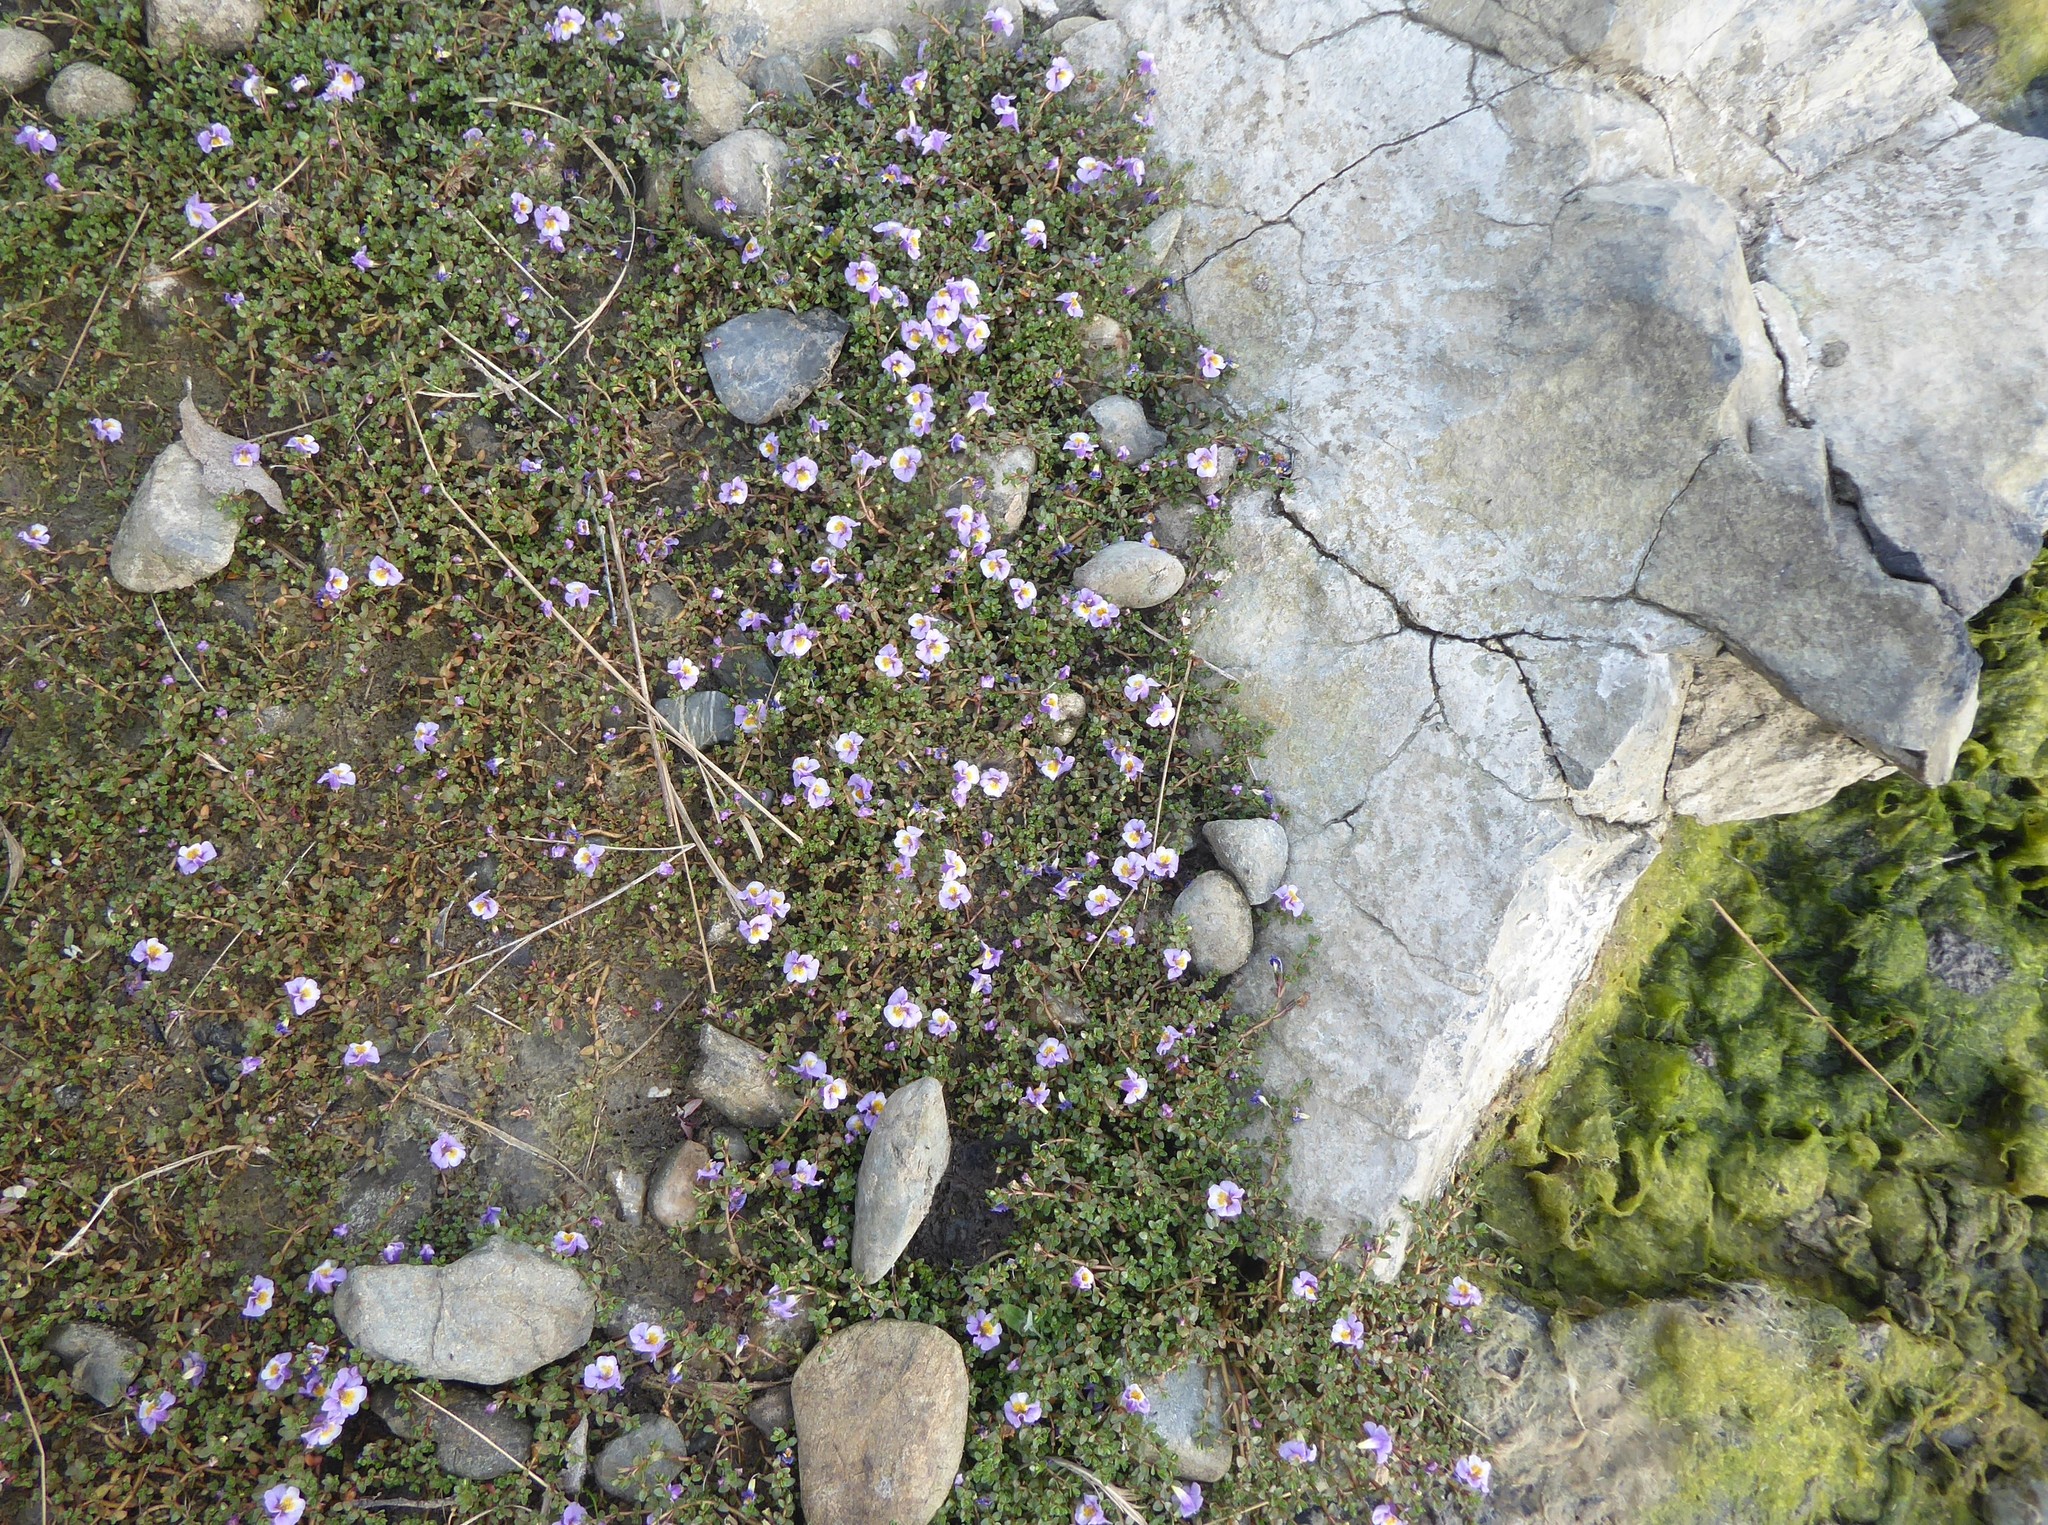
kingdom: Plantae
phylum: Tracheophyta
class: Magnoliopsida
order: Lamiales
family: Phrymaceae
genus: Thyridia
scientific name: Thyridia repens
